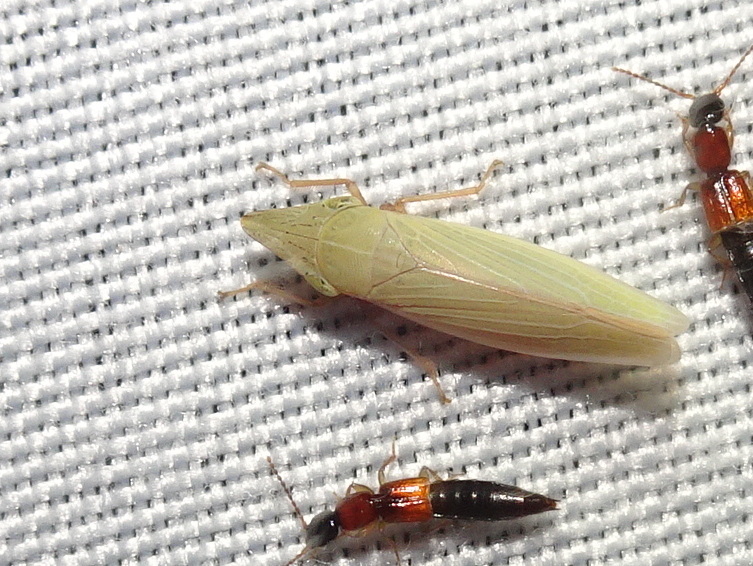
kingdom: Animalia
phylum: Arthropoda
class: Insecta
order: Hemiptera
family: Cicadellidae
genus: Draeculacephala
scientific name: Draeculacephala antica
